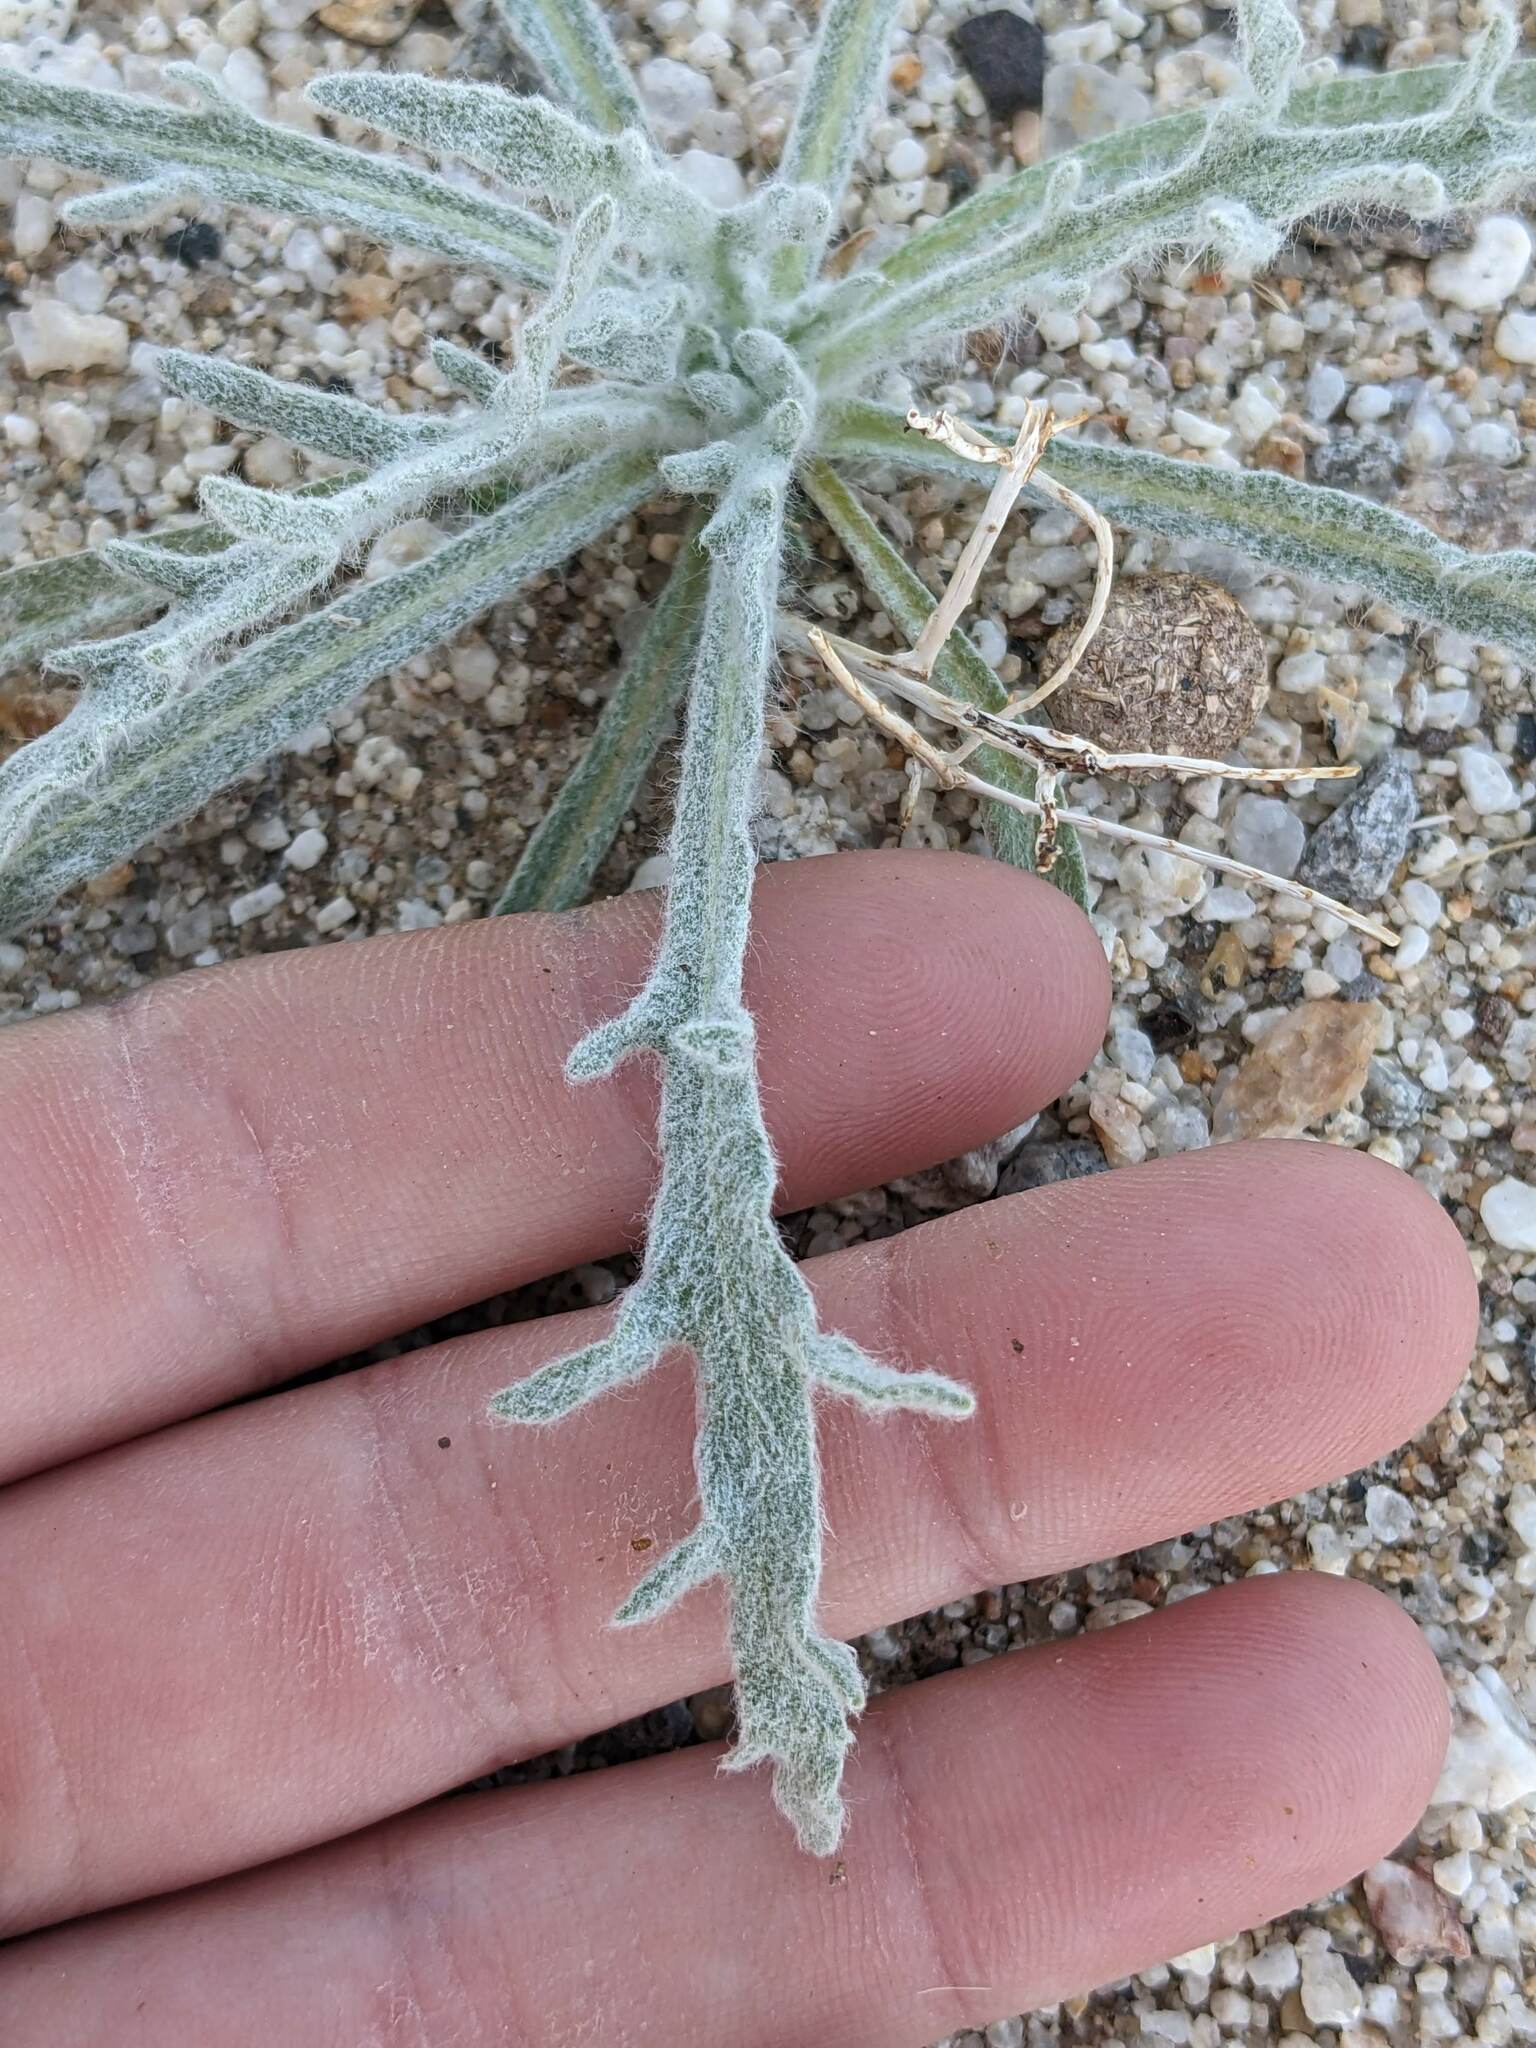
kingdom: Plantae
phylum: Tracheophyta
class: Magnoliopsida
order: Asterales
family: Asteraceae
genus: Baileya
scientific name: Baileya pauciradiata
